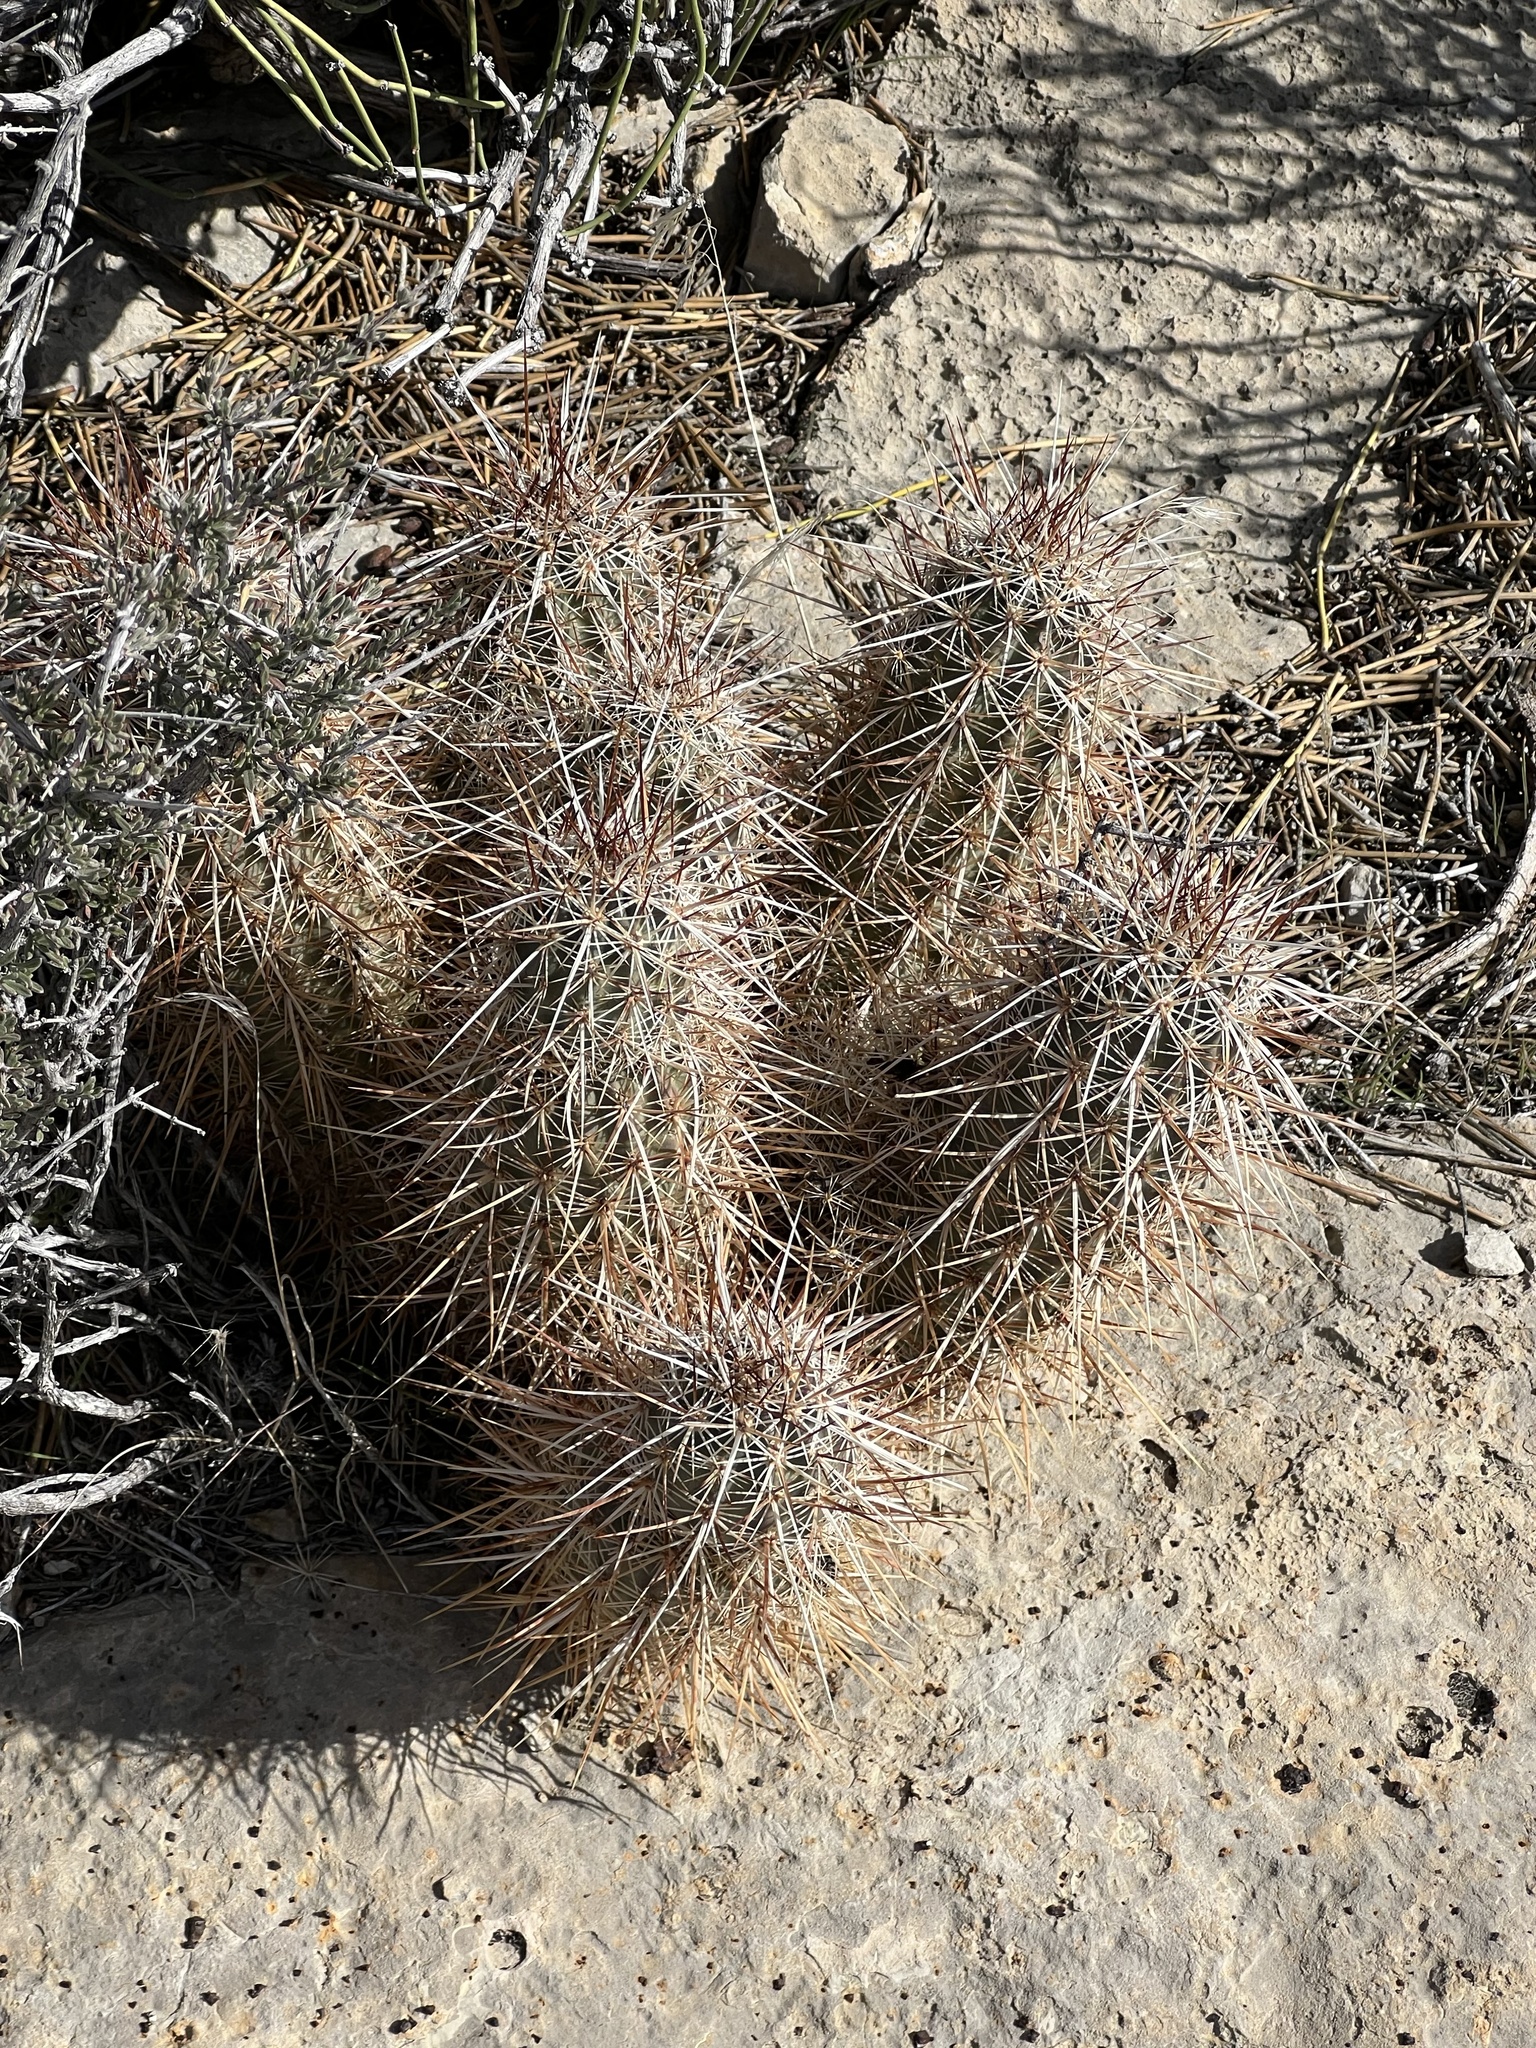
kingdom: Plantae
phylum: Tracheophyta
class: Magnoliopsida
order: Caryophyllales
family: Cactaceae
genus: Echinocereus
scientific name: Echinocereus engelmannii
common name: Engelmann's hedgehog cactus
